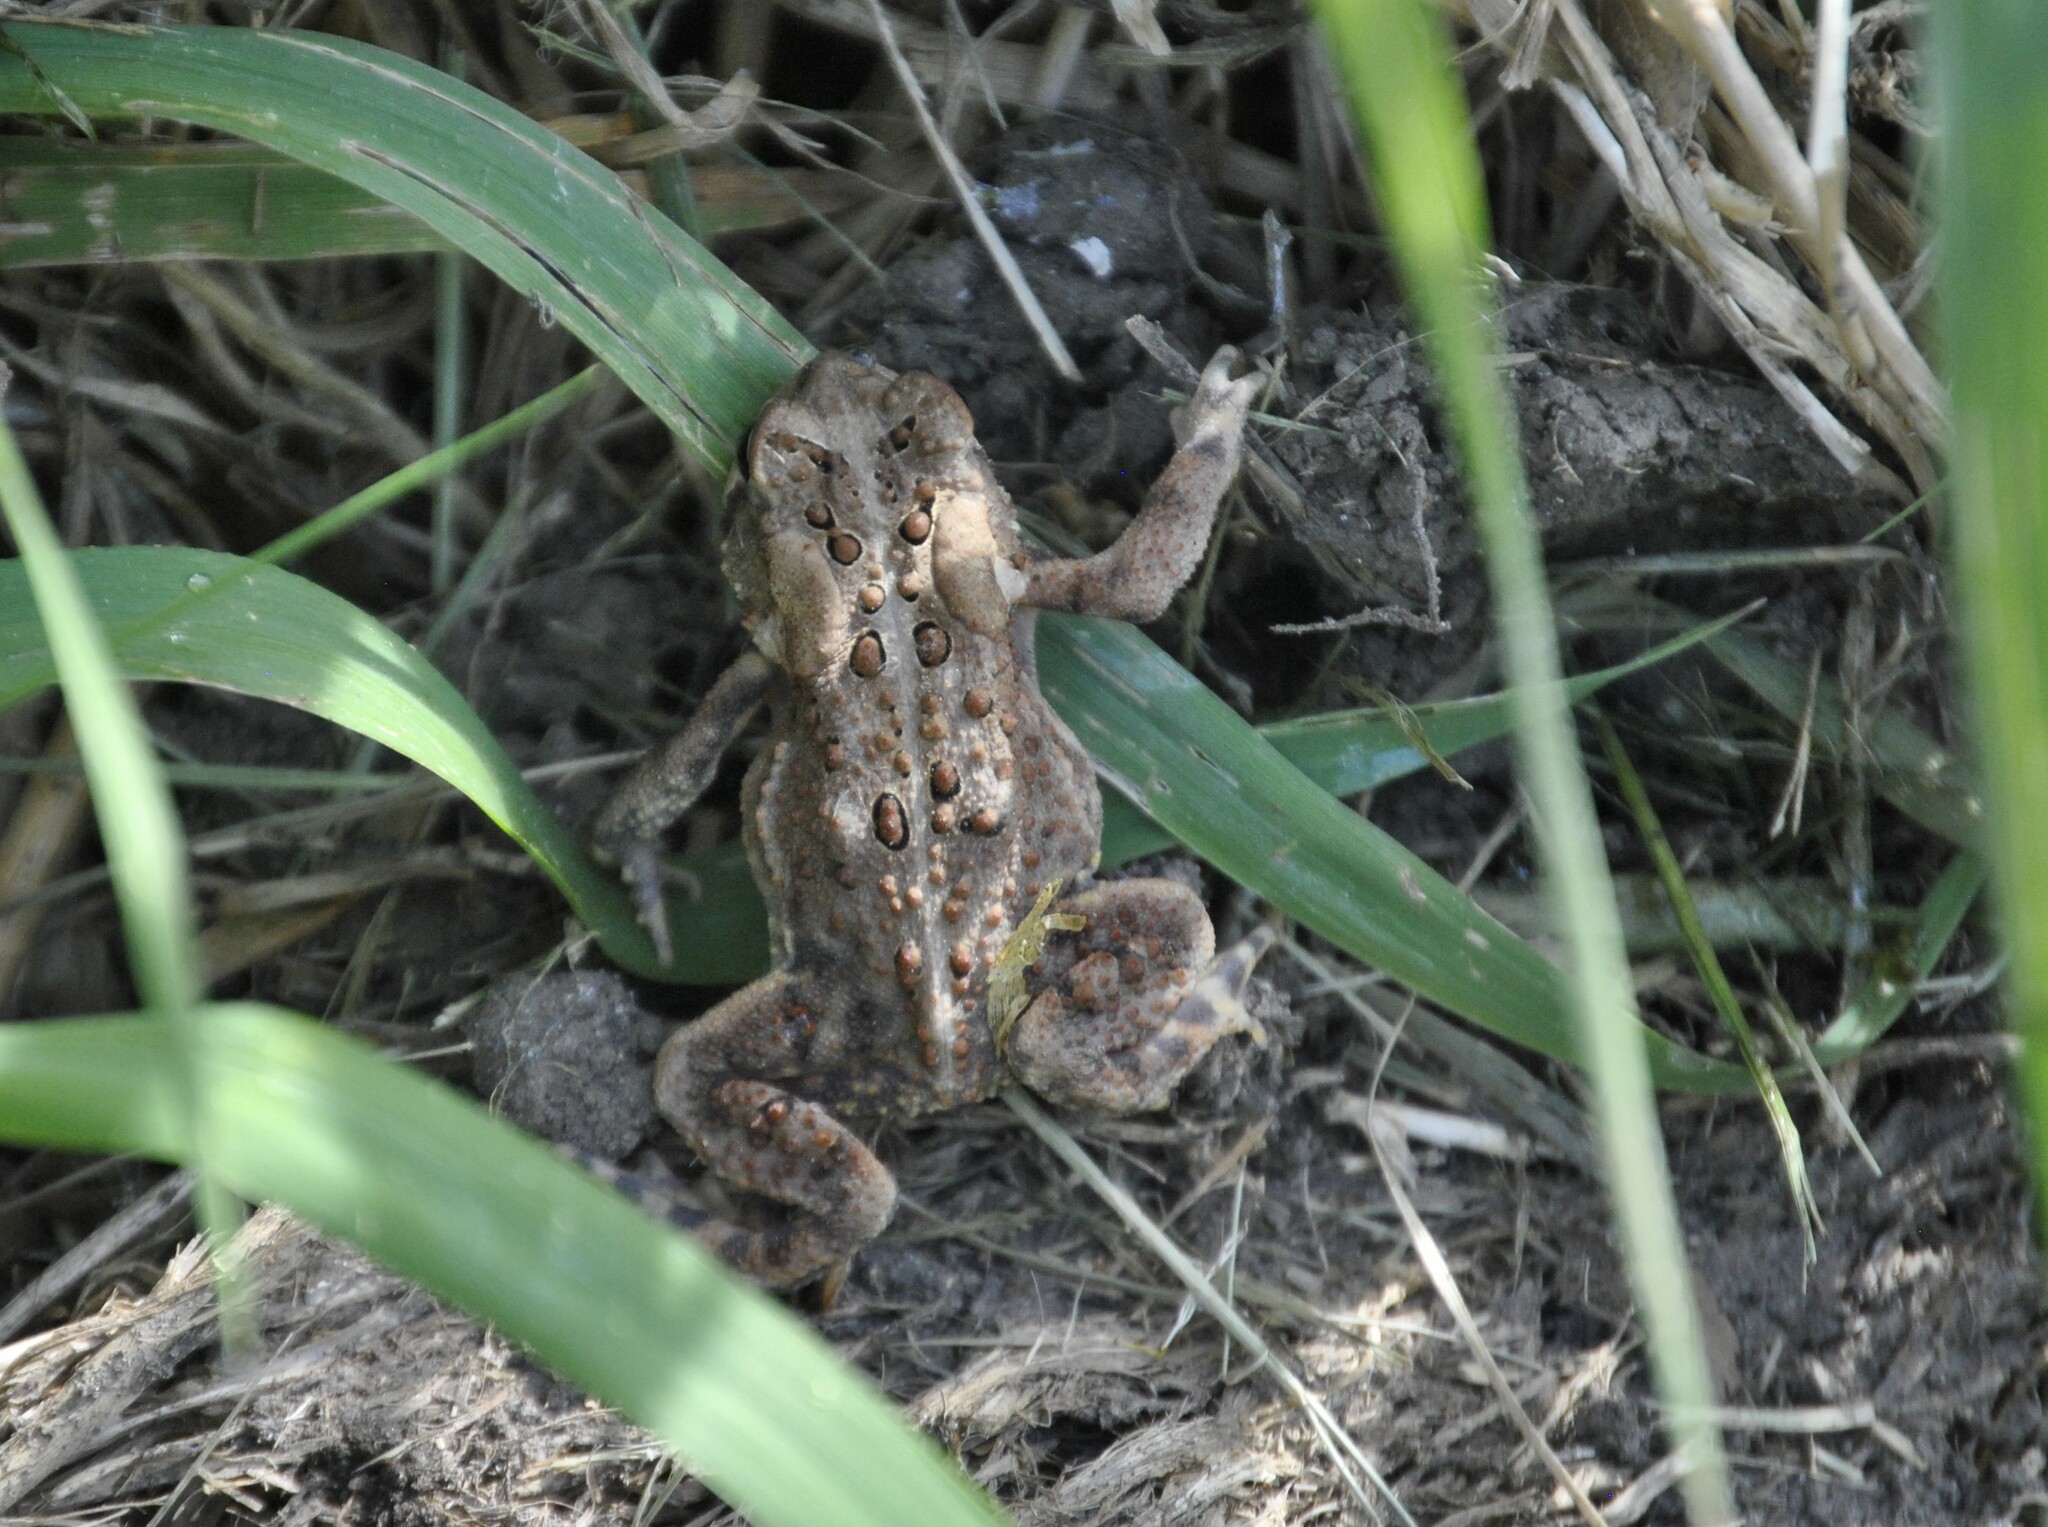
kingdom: Animalia
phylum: Chordata
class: Amphibia
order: Anura
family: Bufonidae
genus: Anaxyrus
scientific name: Anaxyrus americanus
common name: American toad
